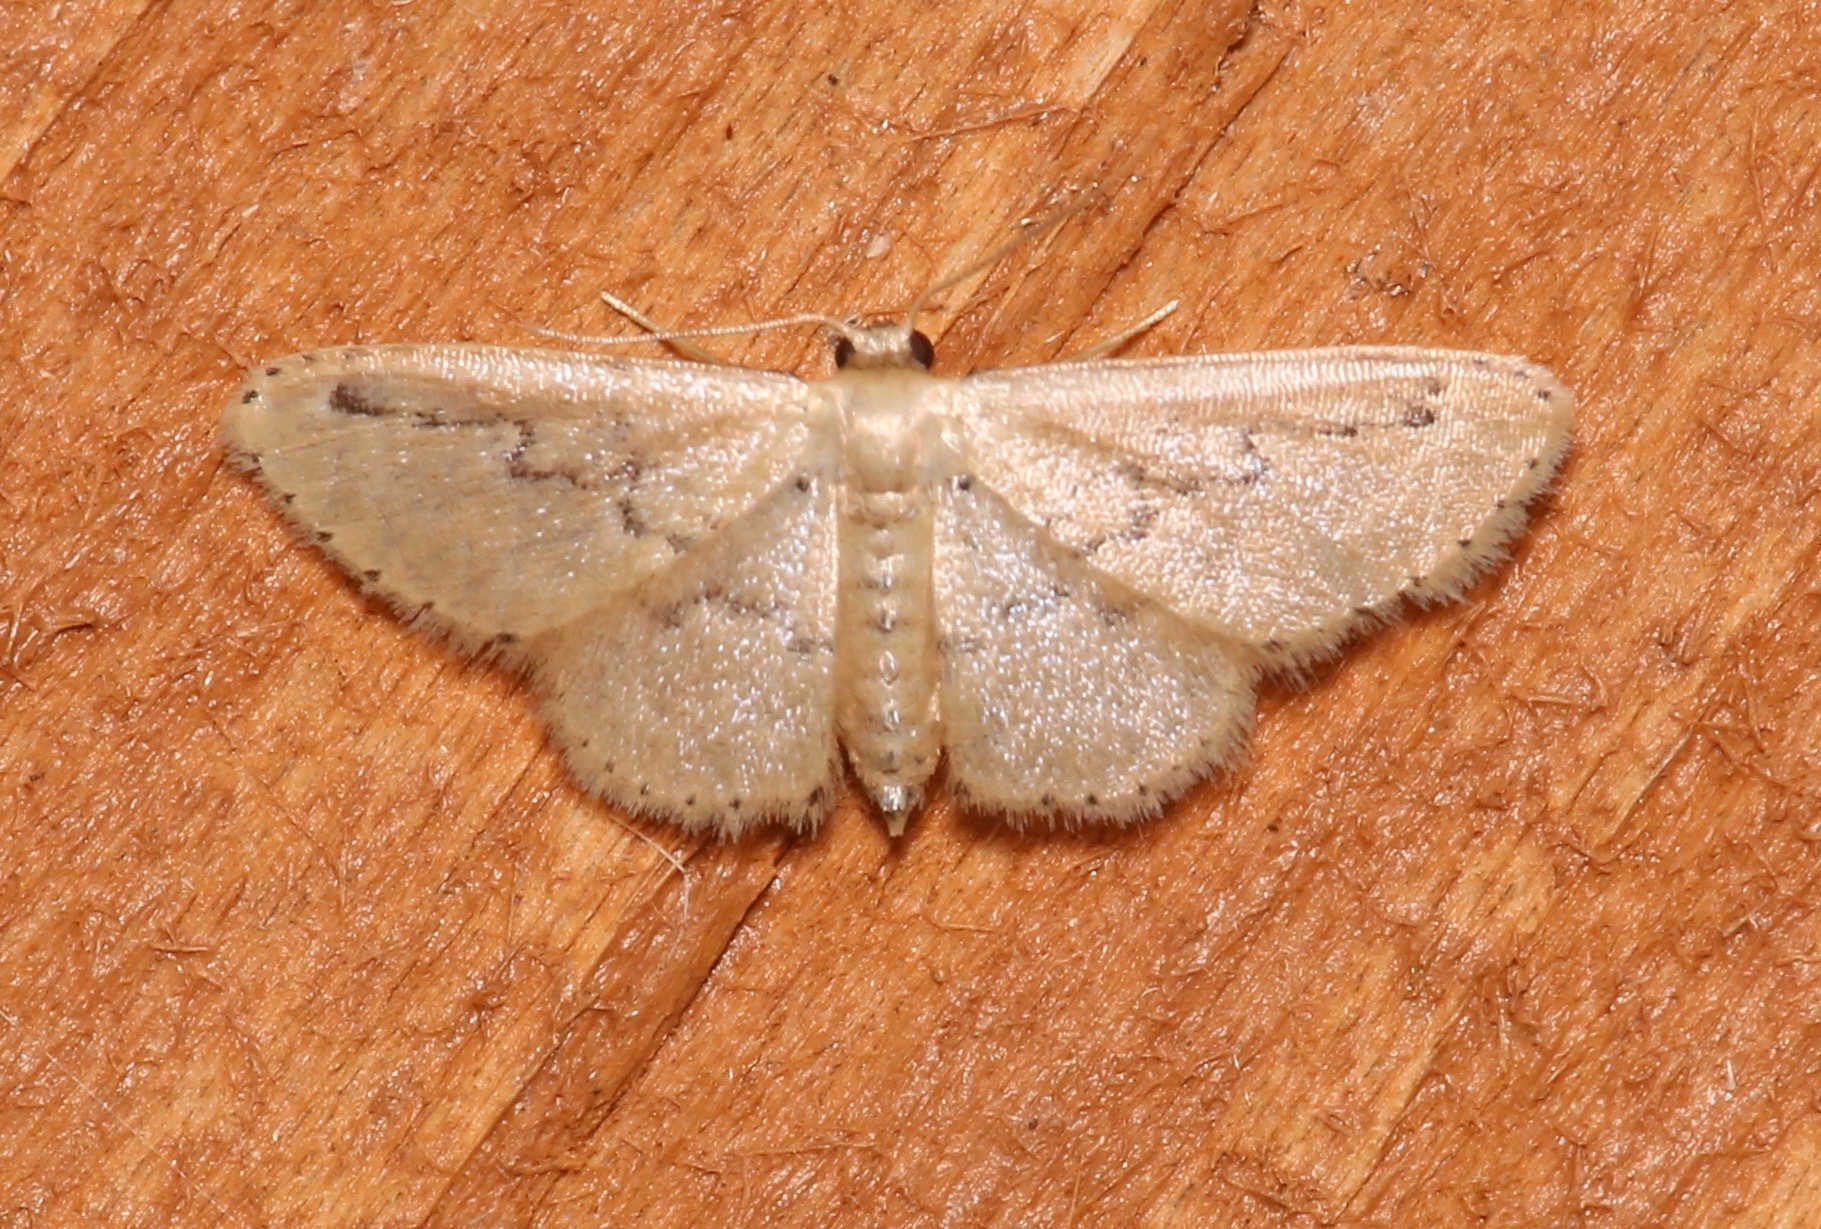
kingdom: Animalia
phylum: Arthropoda
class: Insecta
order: Lepidoptera
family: Geometridae
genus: Idaea
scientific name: Idaea hilliata
